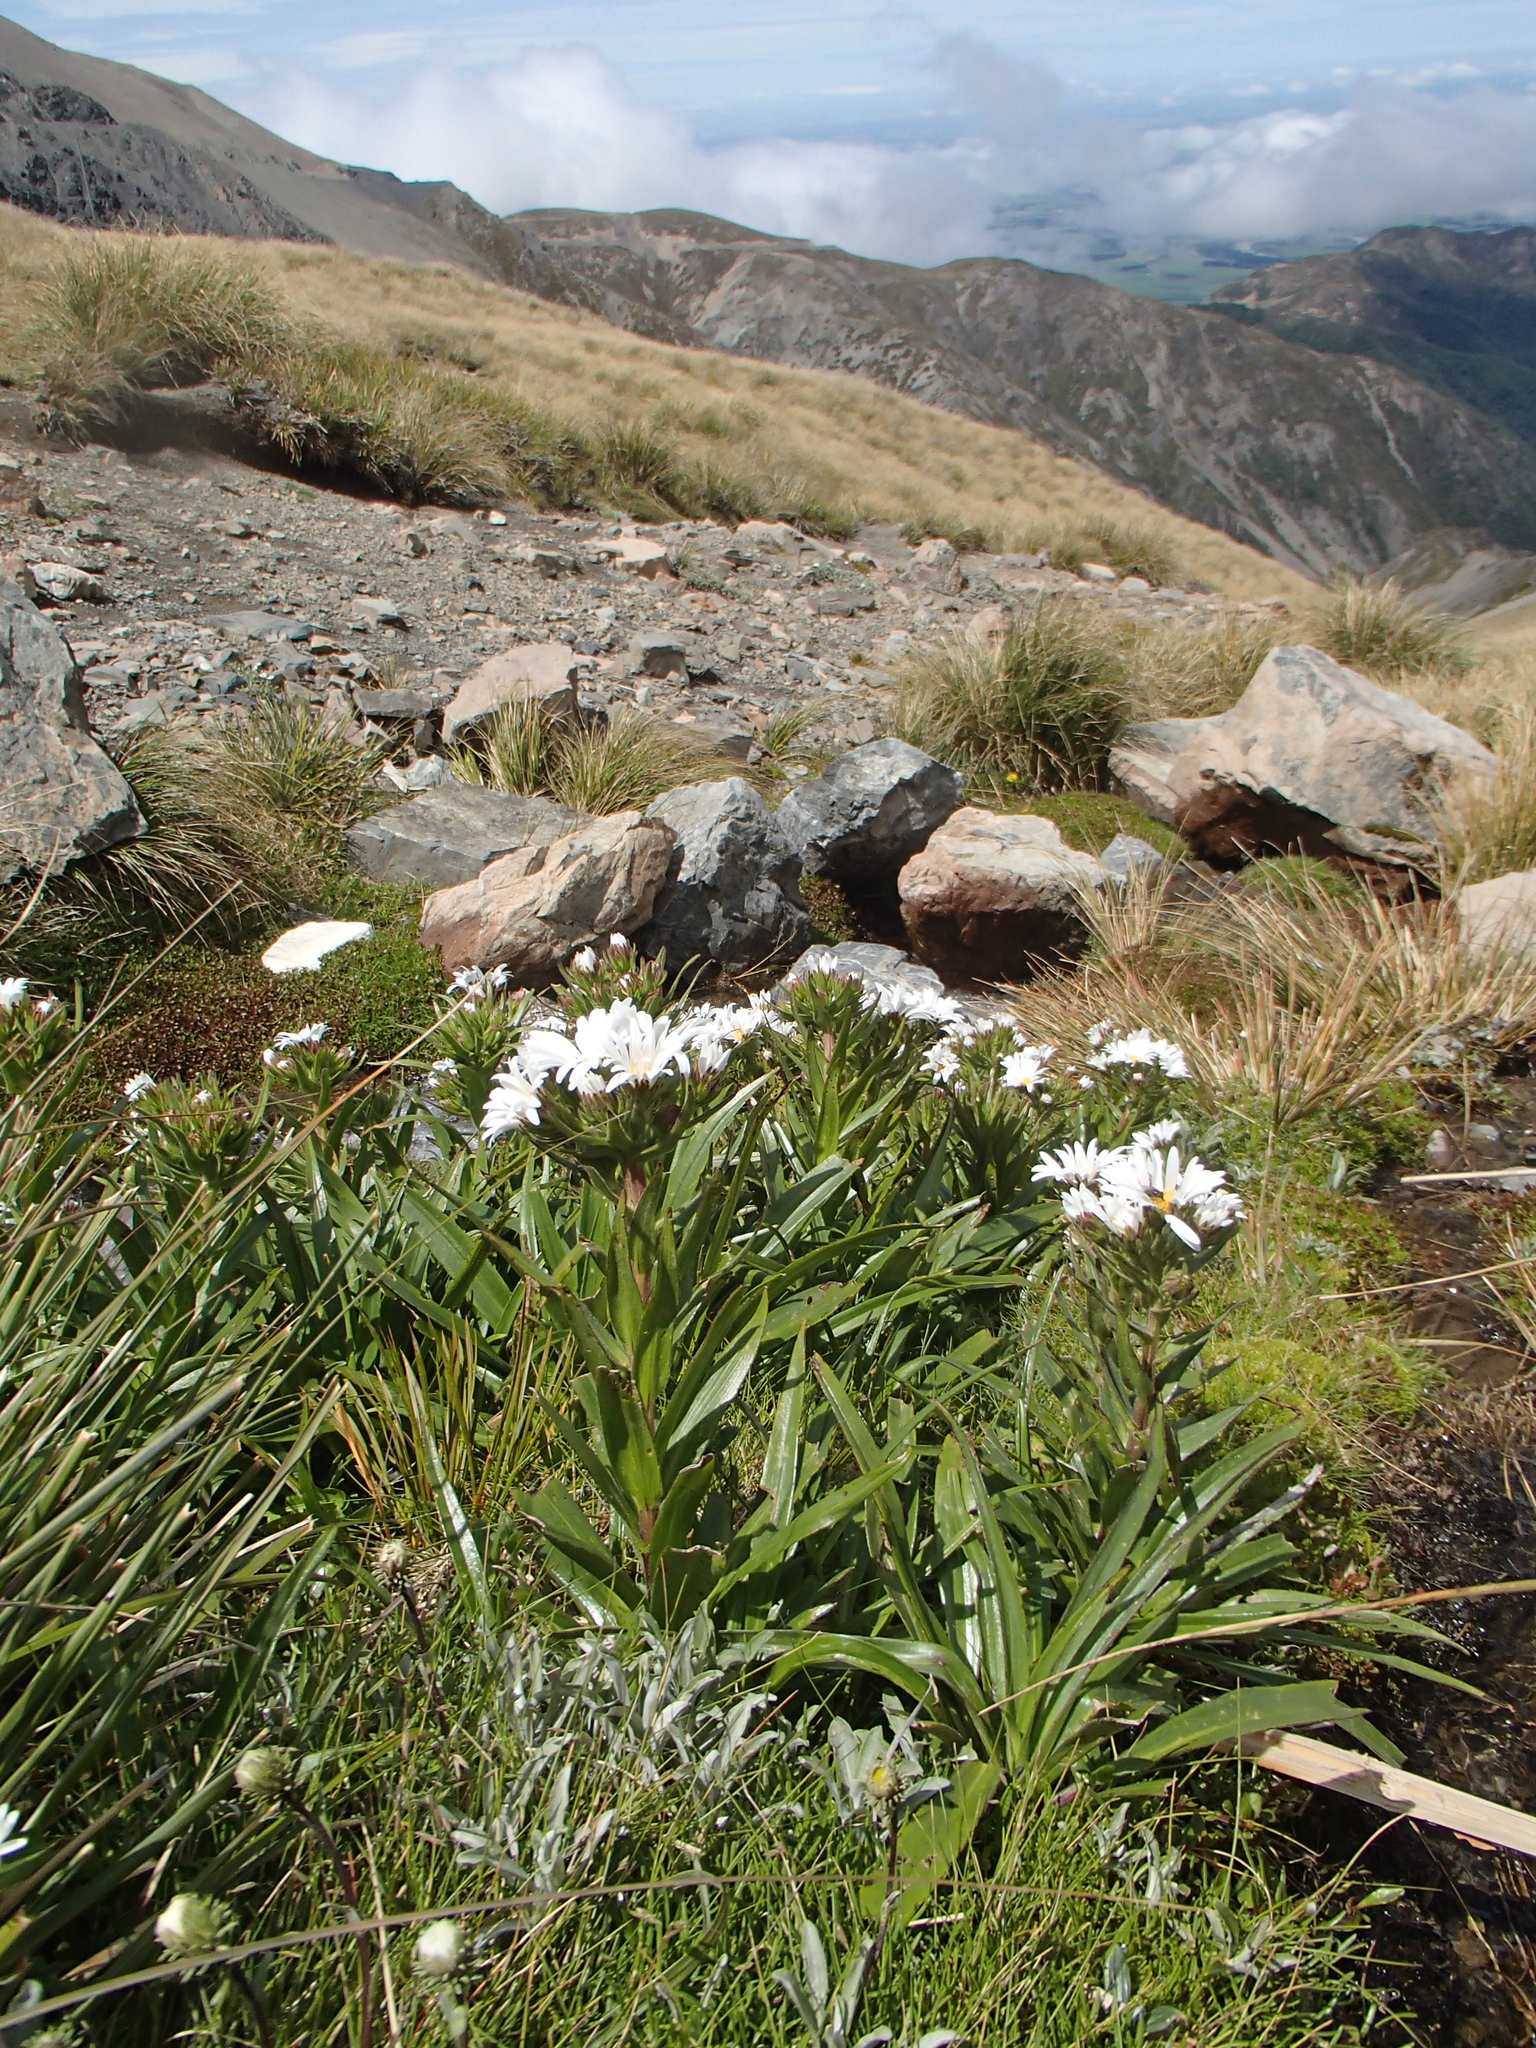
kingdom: Plantae
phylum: Tracheophyta
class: Magnoliopsida
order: Asterales
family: Asteraceae
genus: Dolichoglottis
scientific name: Dolichoglottis scorzoneroides
